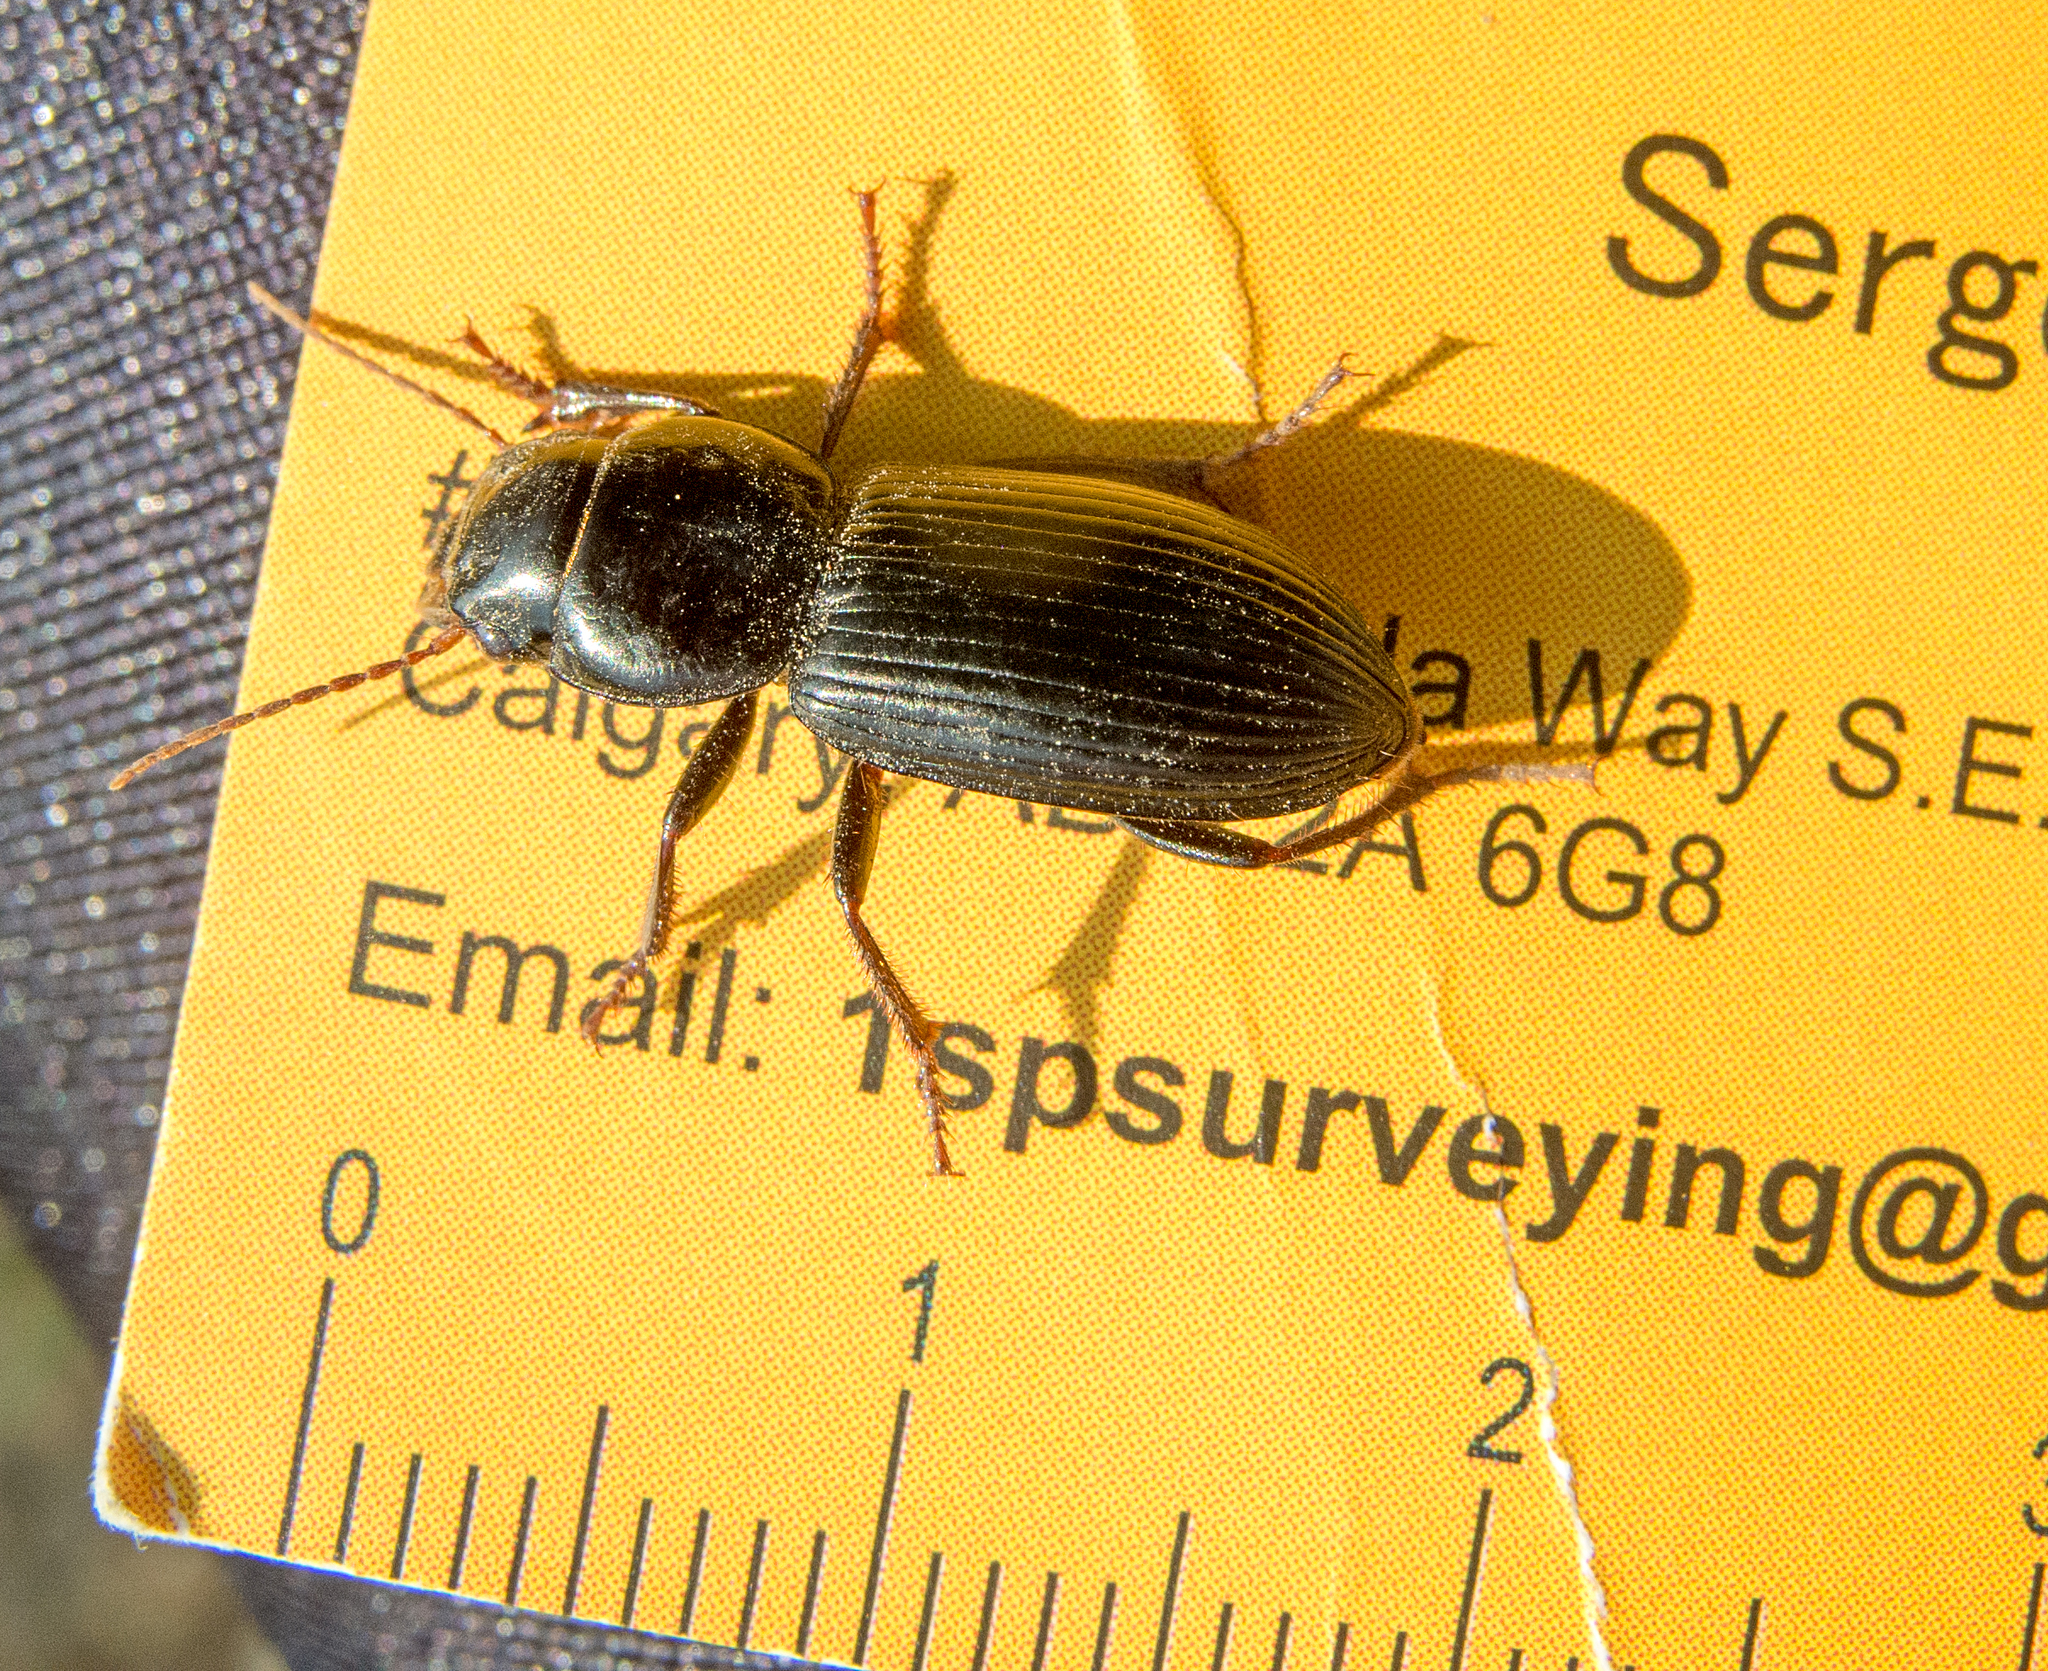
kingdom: Animalia
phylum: Arthropoda
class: Insecta
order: Coleoptera
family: Carabidae
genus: Acinopus
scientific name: Acinopus megacephalus
